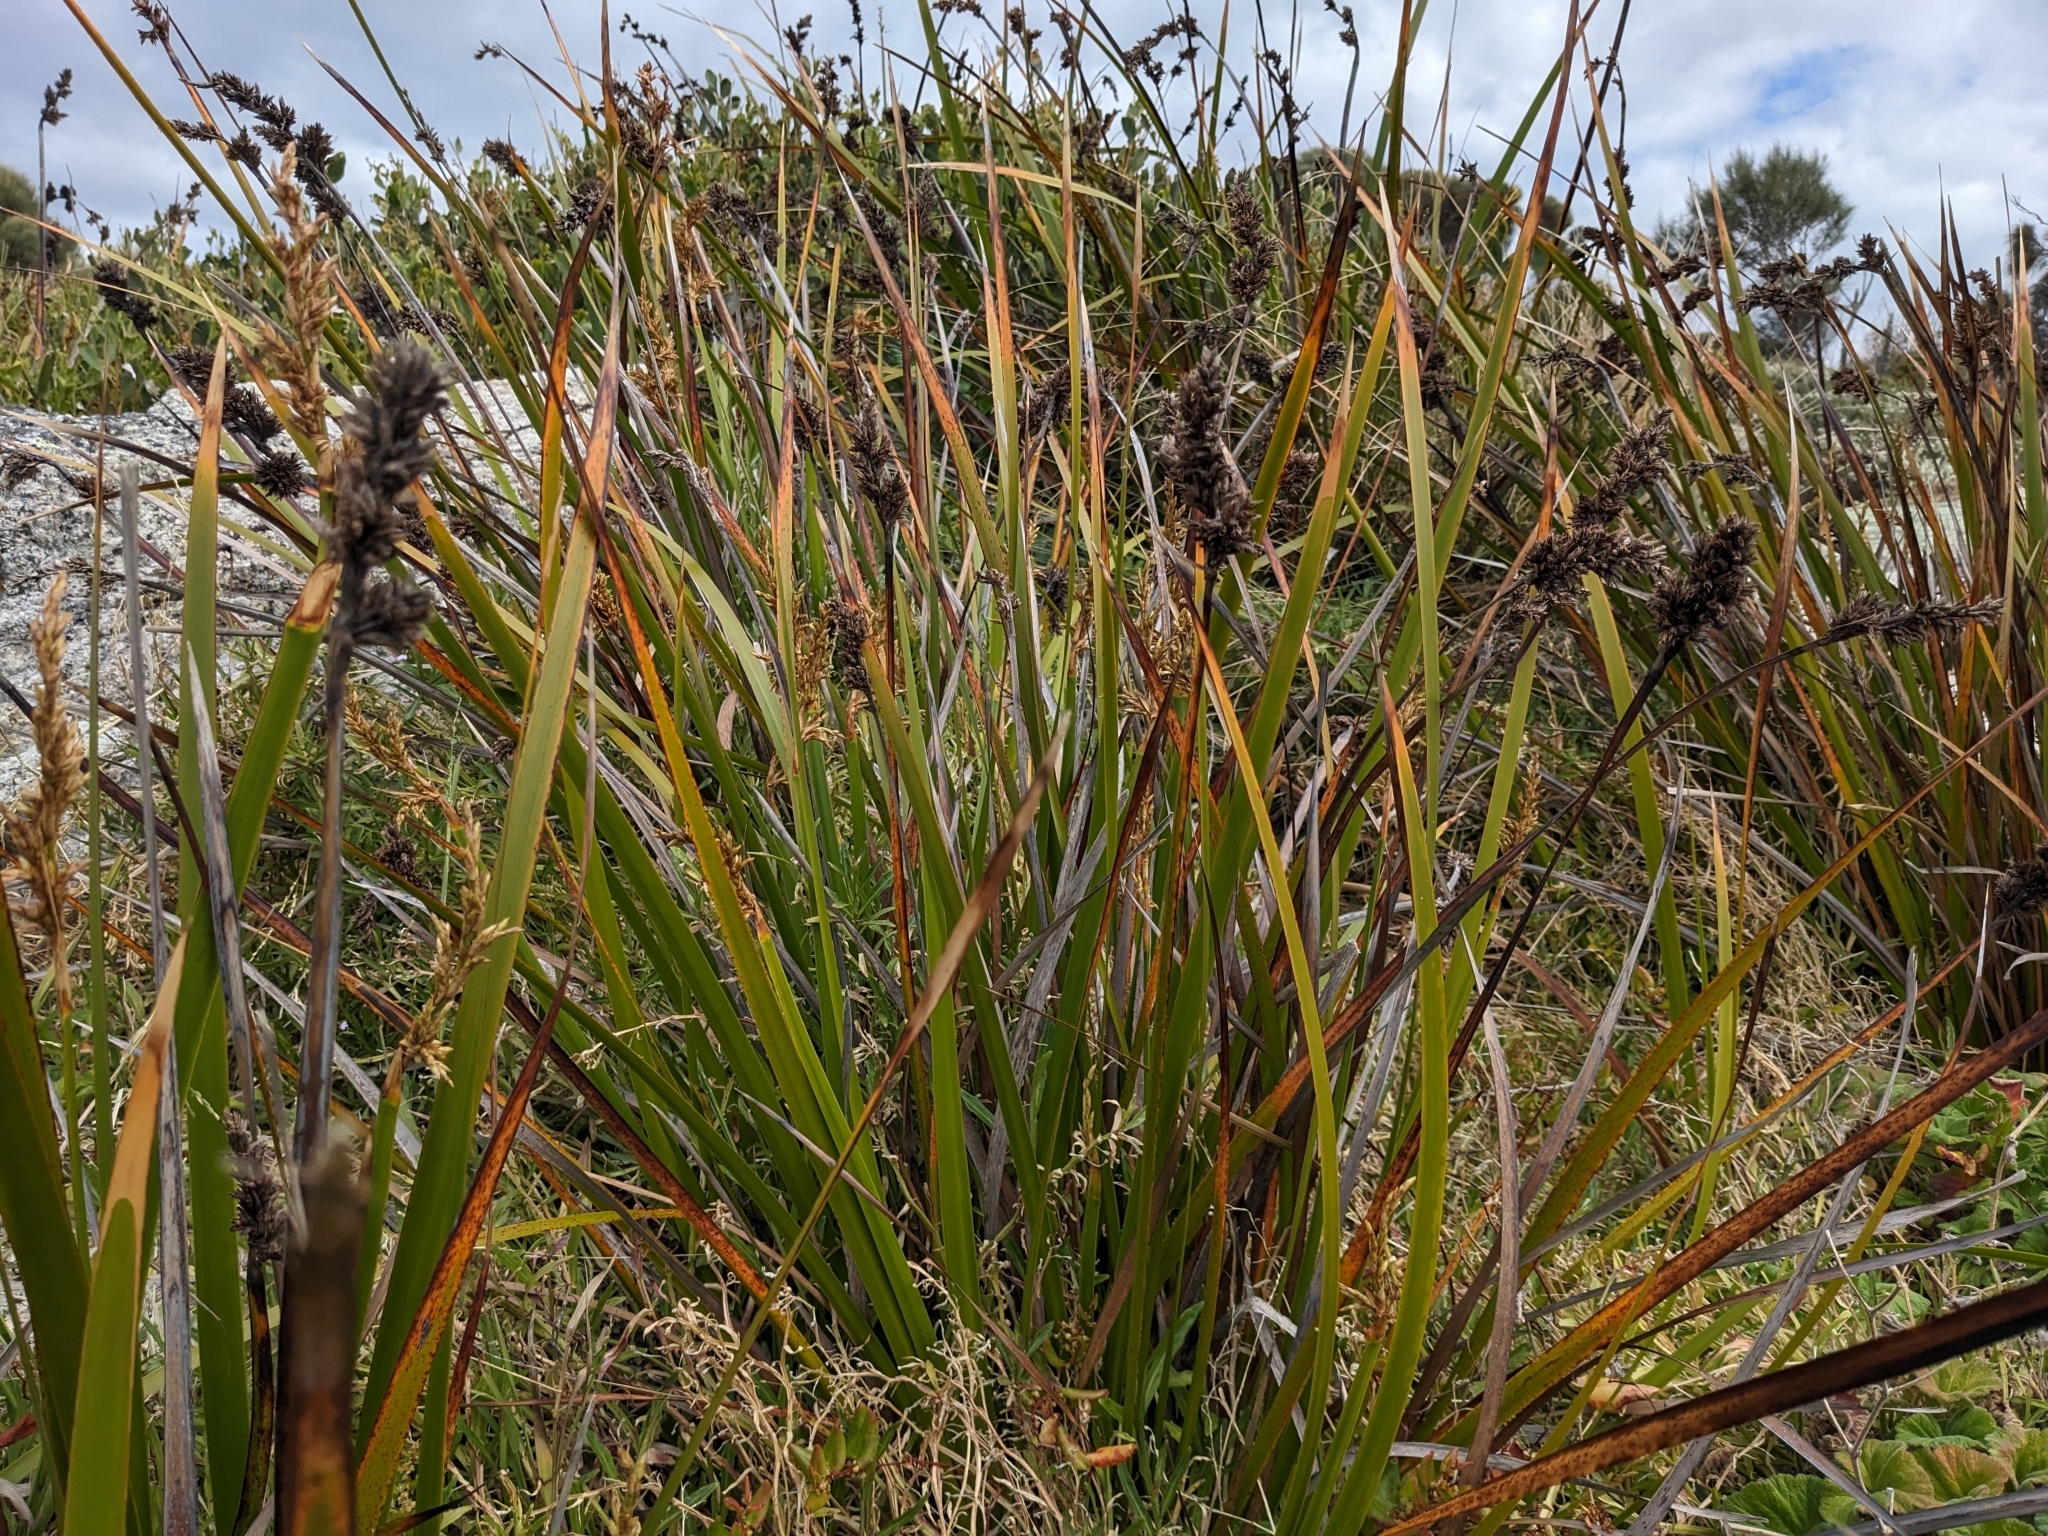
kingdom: Plantae
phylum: Tracheophyta
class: Liliopsida
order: Poales
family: Cyperaceae
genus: Lepidosperma
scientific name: Lepidosperma gladiatum
